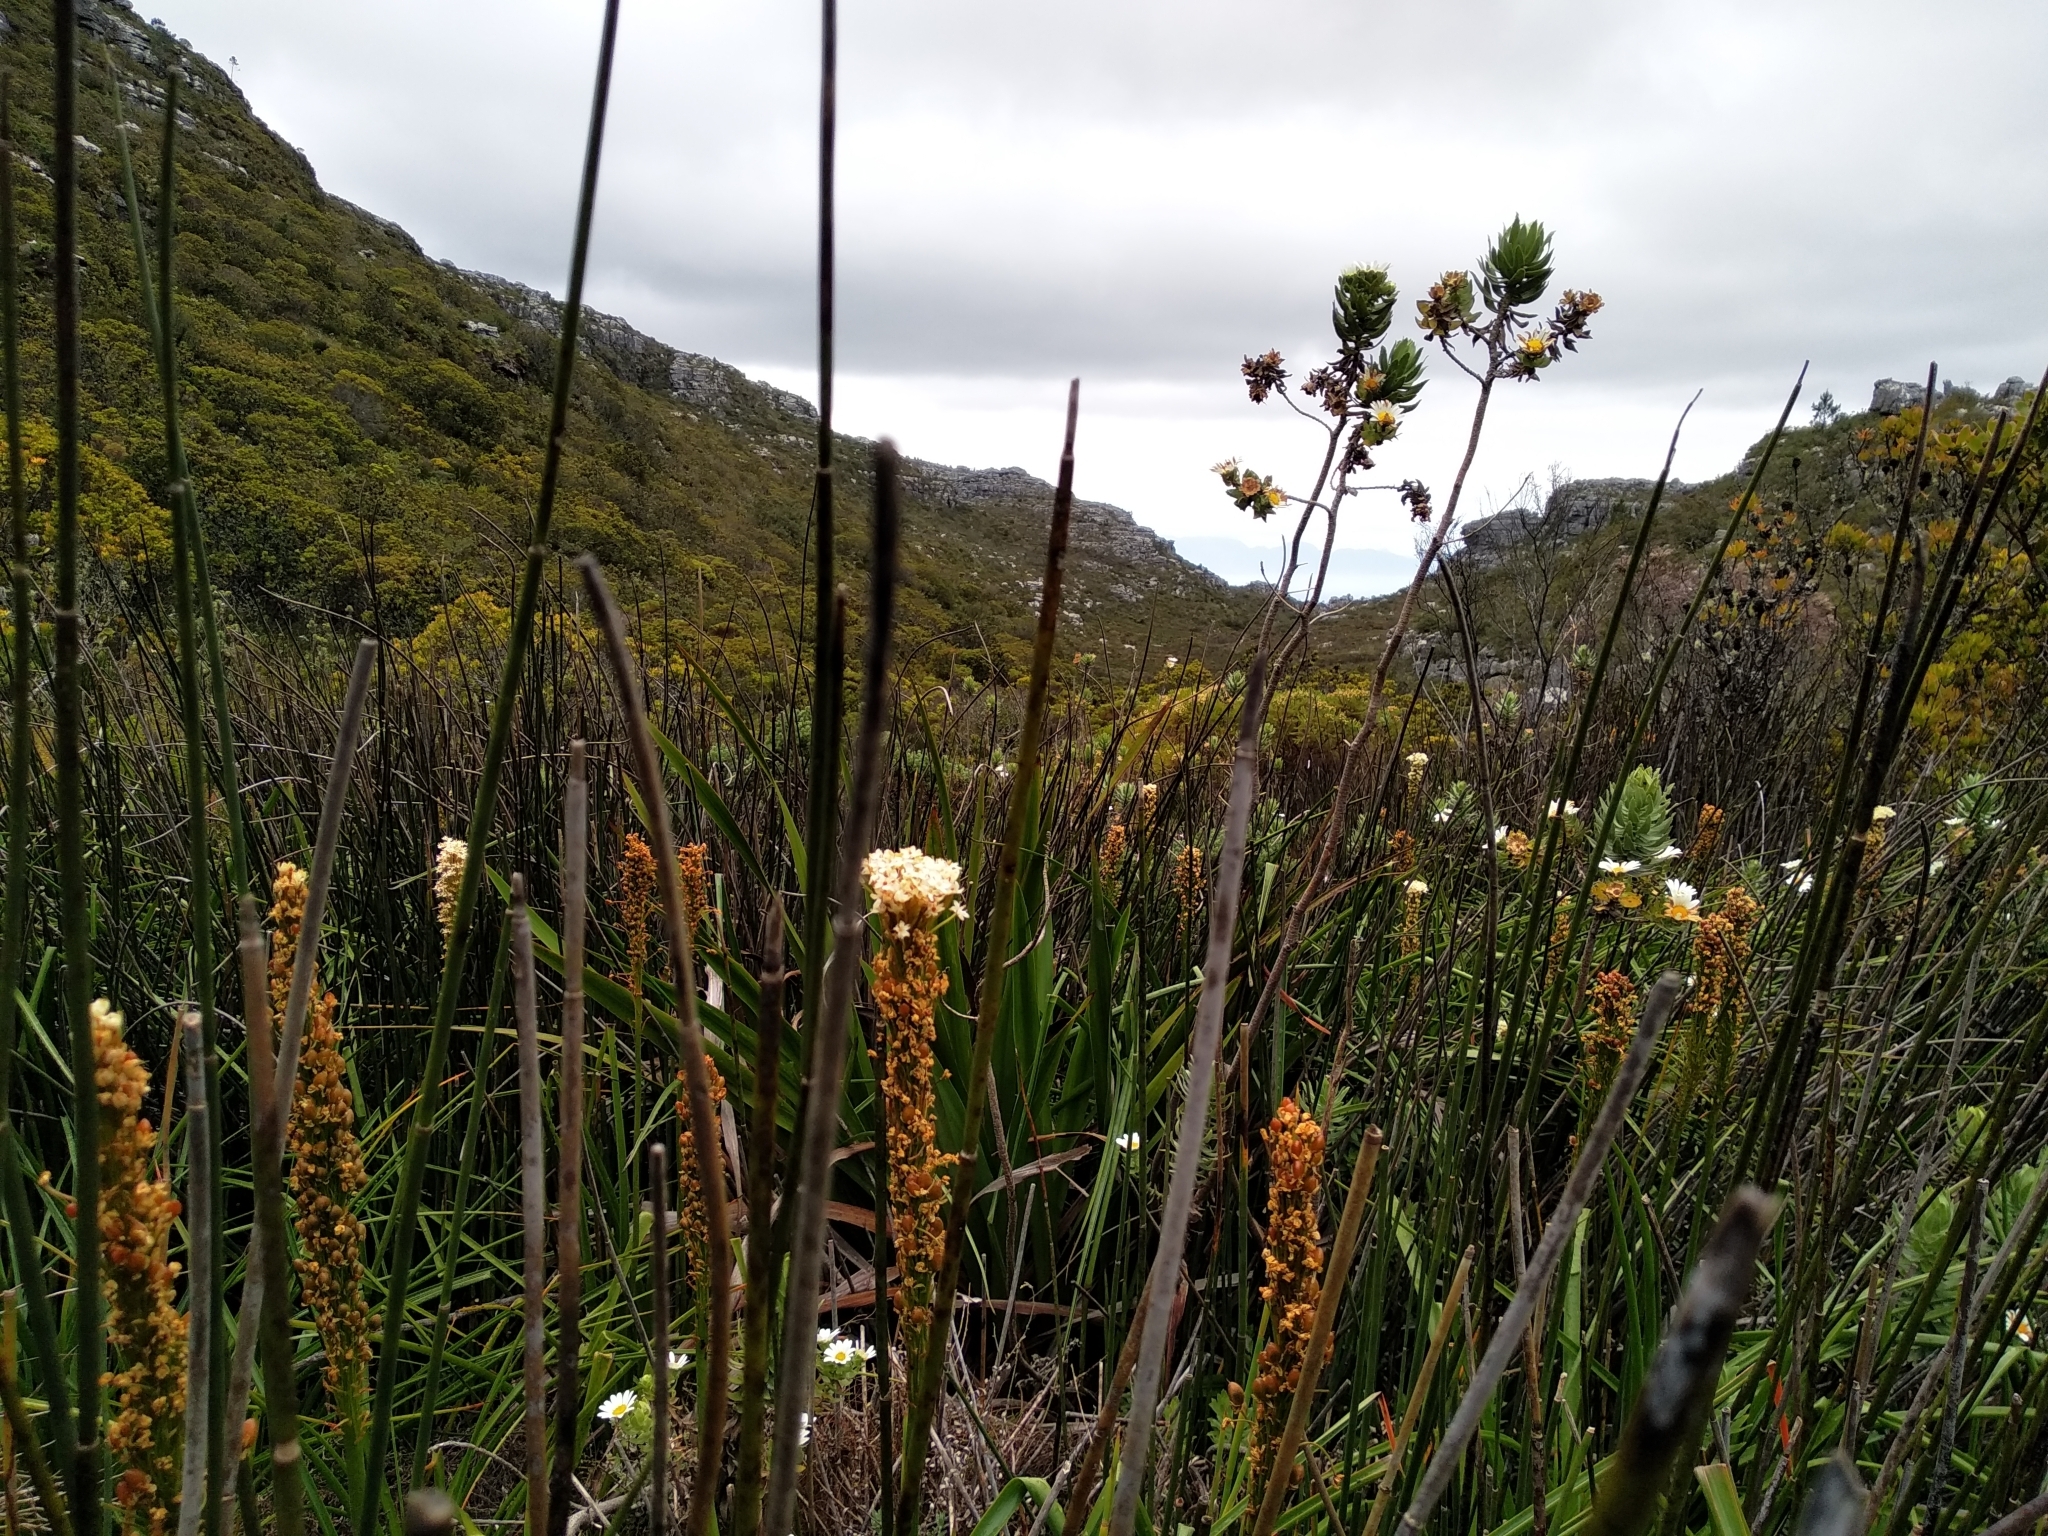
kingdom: Plantae
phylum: Tracheophyta
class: Liliopsida
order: Asparagales
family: Asphodelaceae
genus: Bulbinella
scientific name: Bulbinella nutans
